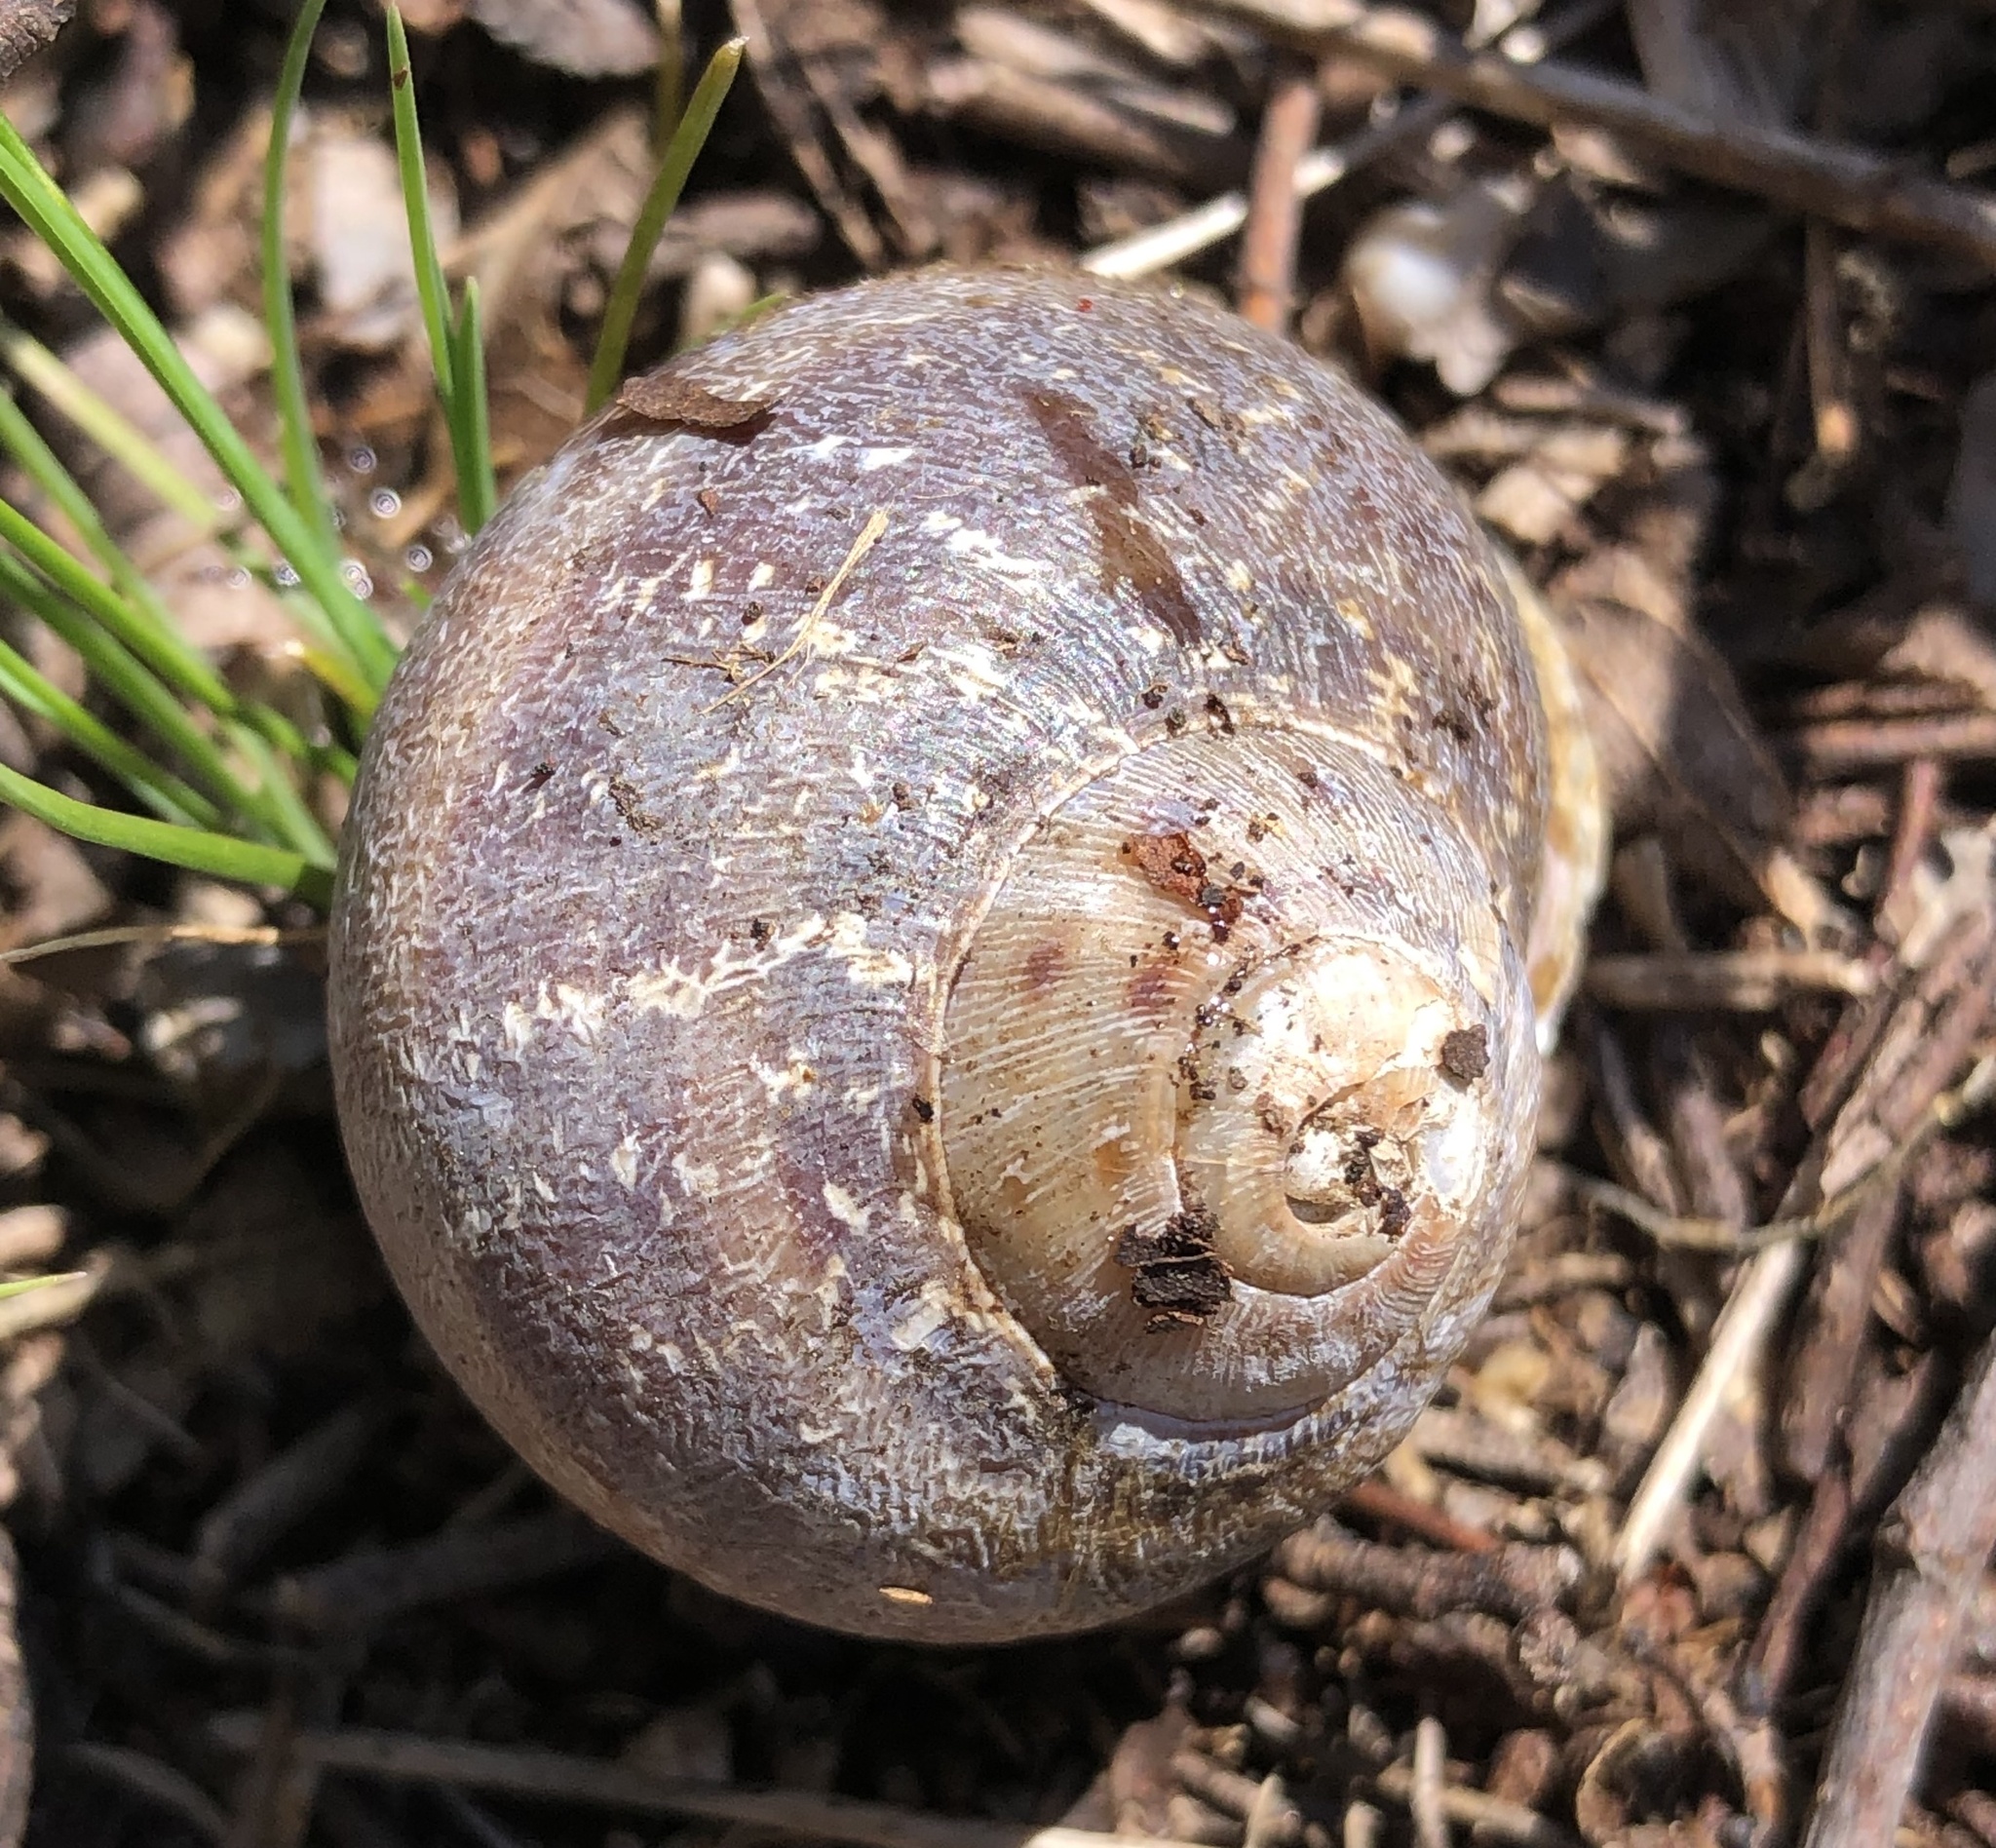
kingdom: Animalia
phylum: Mollusca
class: Gastropoda
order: Stylommatophora
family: Helicidae
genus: Cornu
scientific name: Cornu aspersum
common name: Brown garden snail
